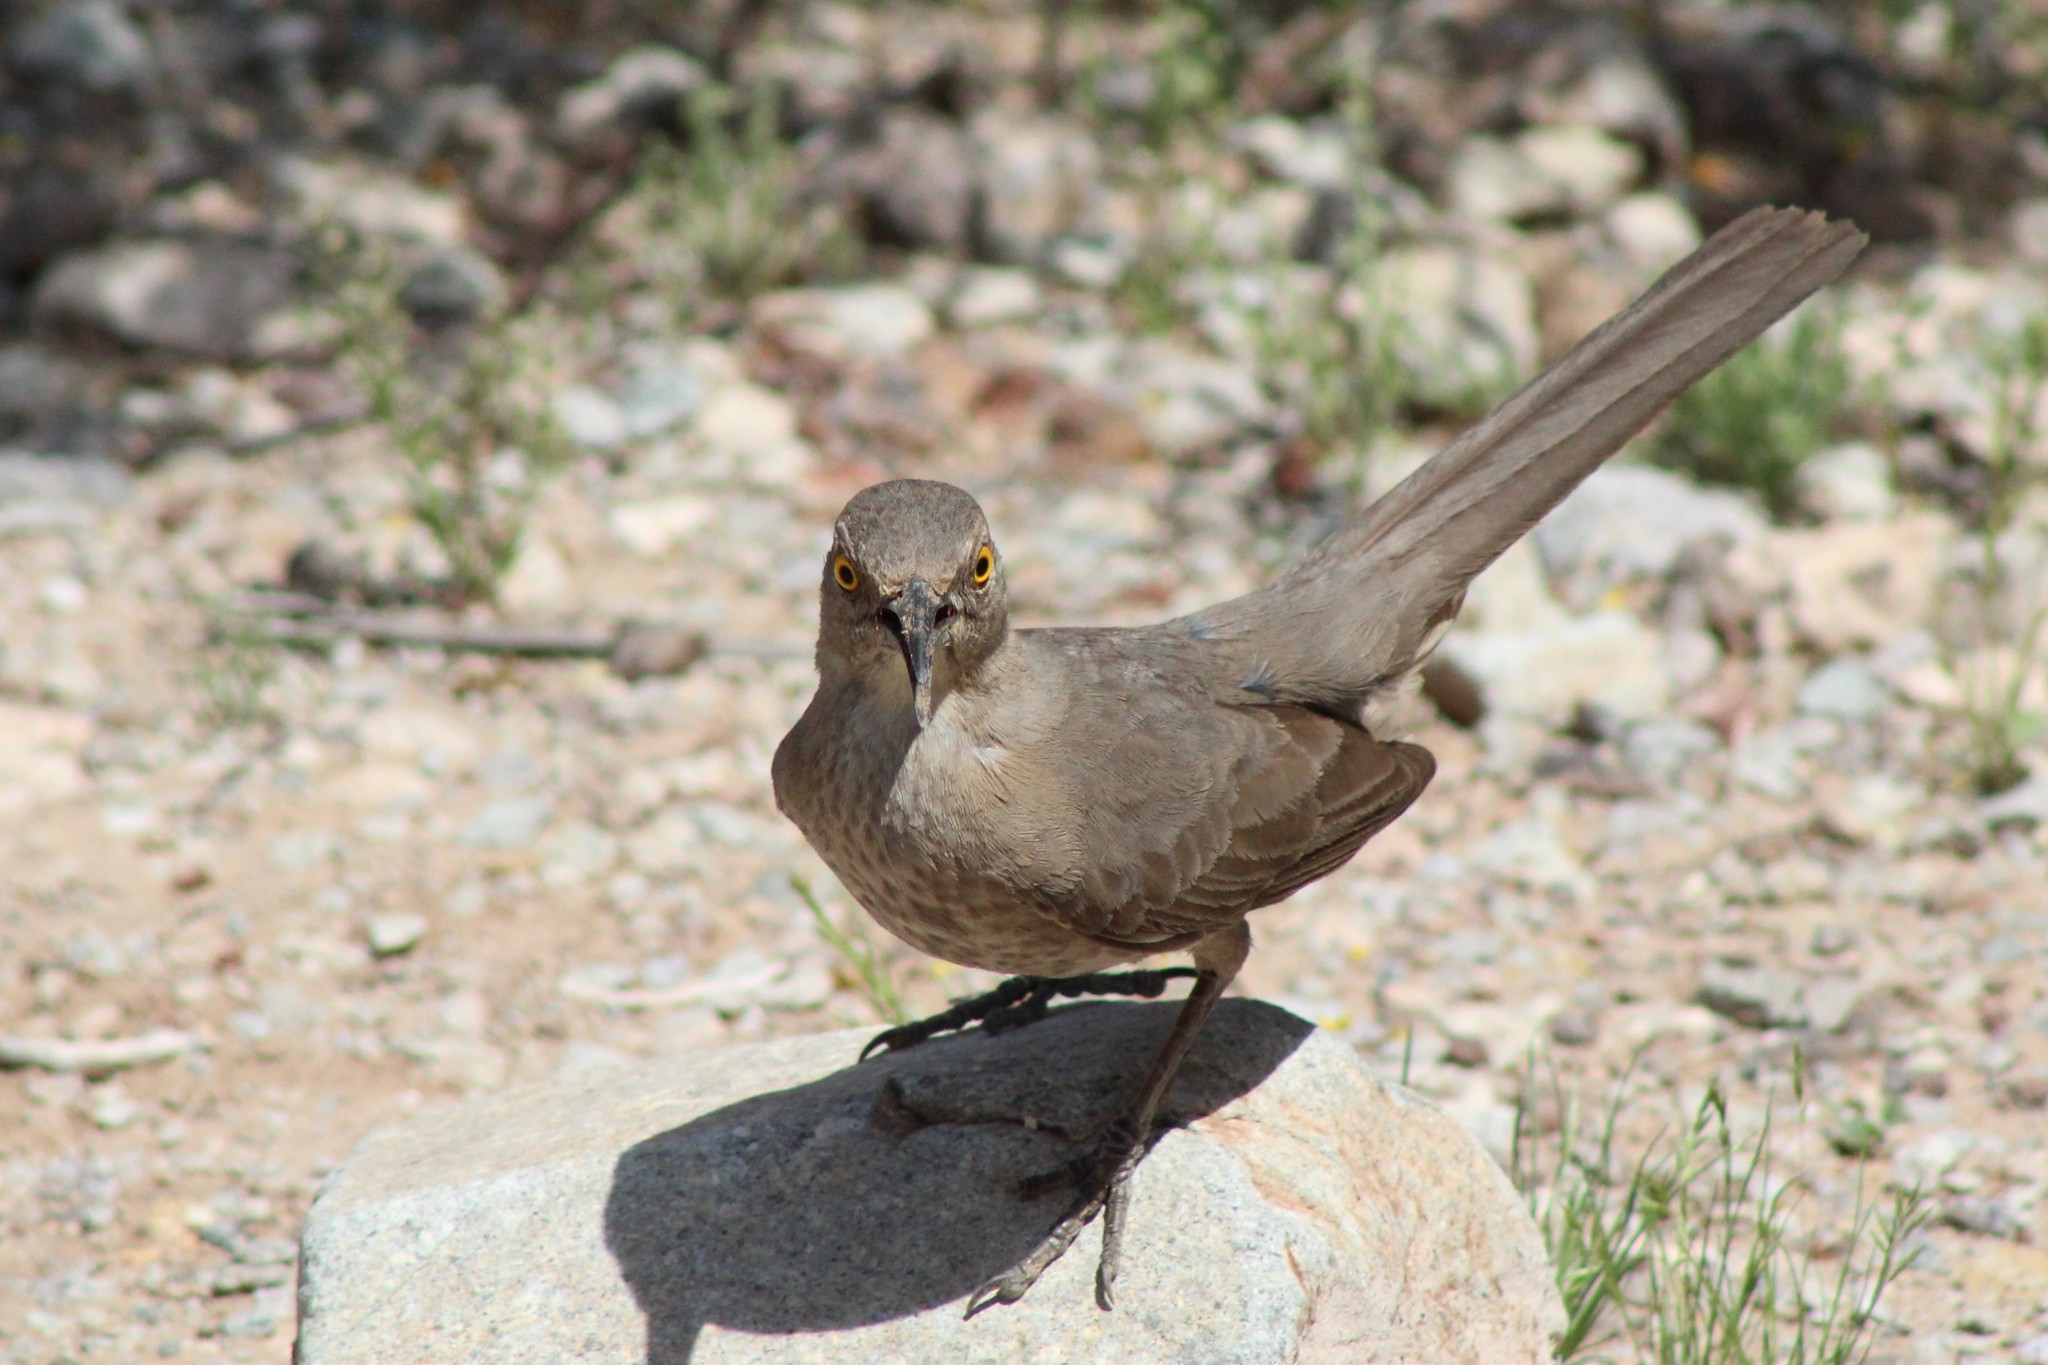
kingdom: Animalia
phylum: Chordata
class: Aves
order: Passeriformes
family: Mimidae
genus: Toxostoma
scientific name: Toxostoma curvirostre
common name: Curve-billed thrasher
